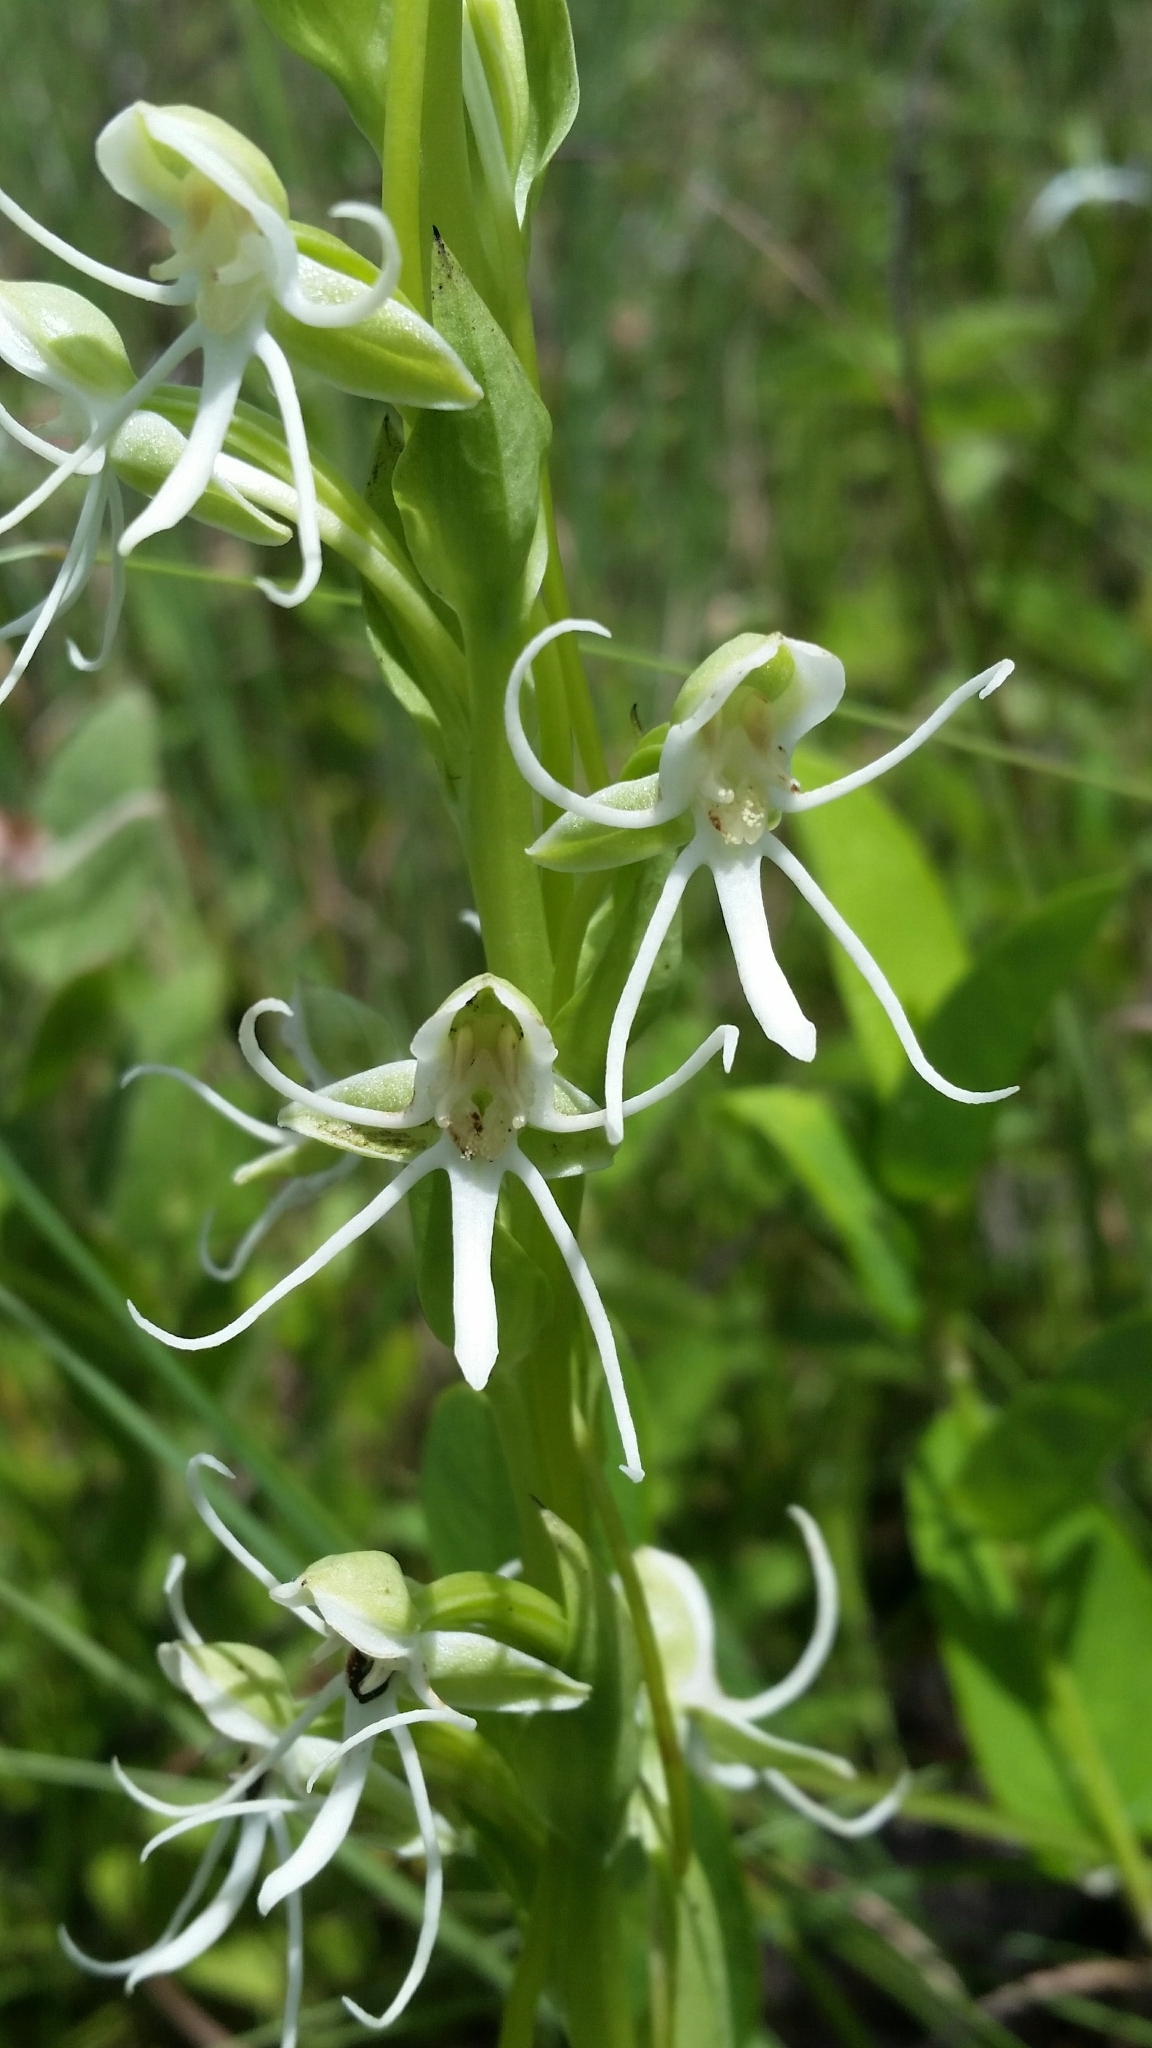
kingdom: Plantae
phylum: Tracheophyta
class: Liliopsida
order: Asparagales
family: Orchidaceae
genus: Habenaria
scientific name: Habenaria quinqueseta
